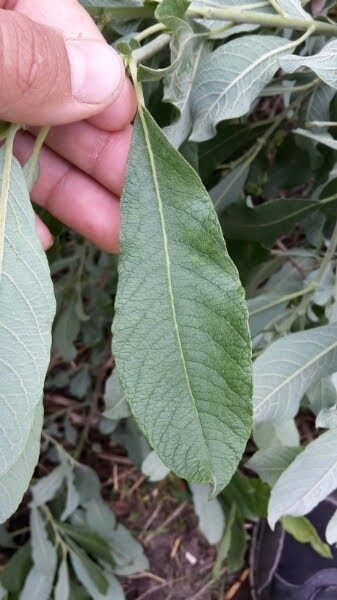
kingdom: Plantae
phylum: Tracheophyta
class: Magnoliopsida
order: Malpighiales
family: Salicaceae
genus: Salix
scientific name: Salix cinerea
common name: Common sallow
